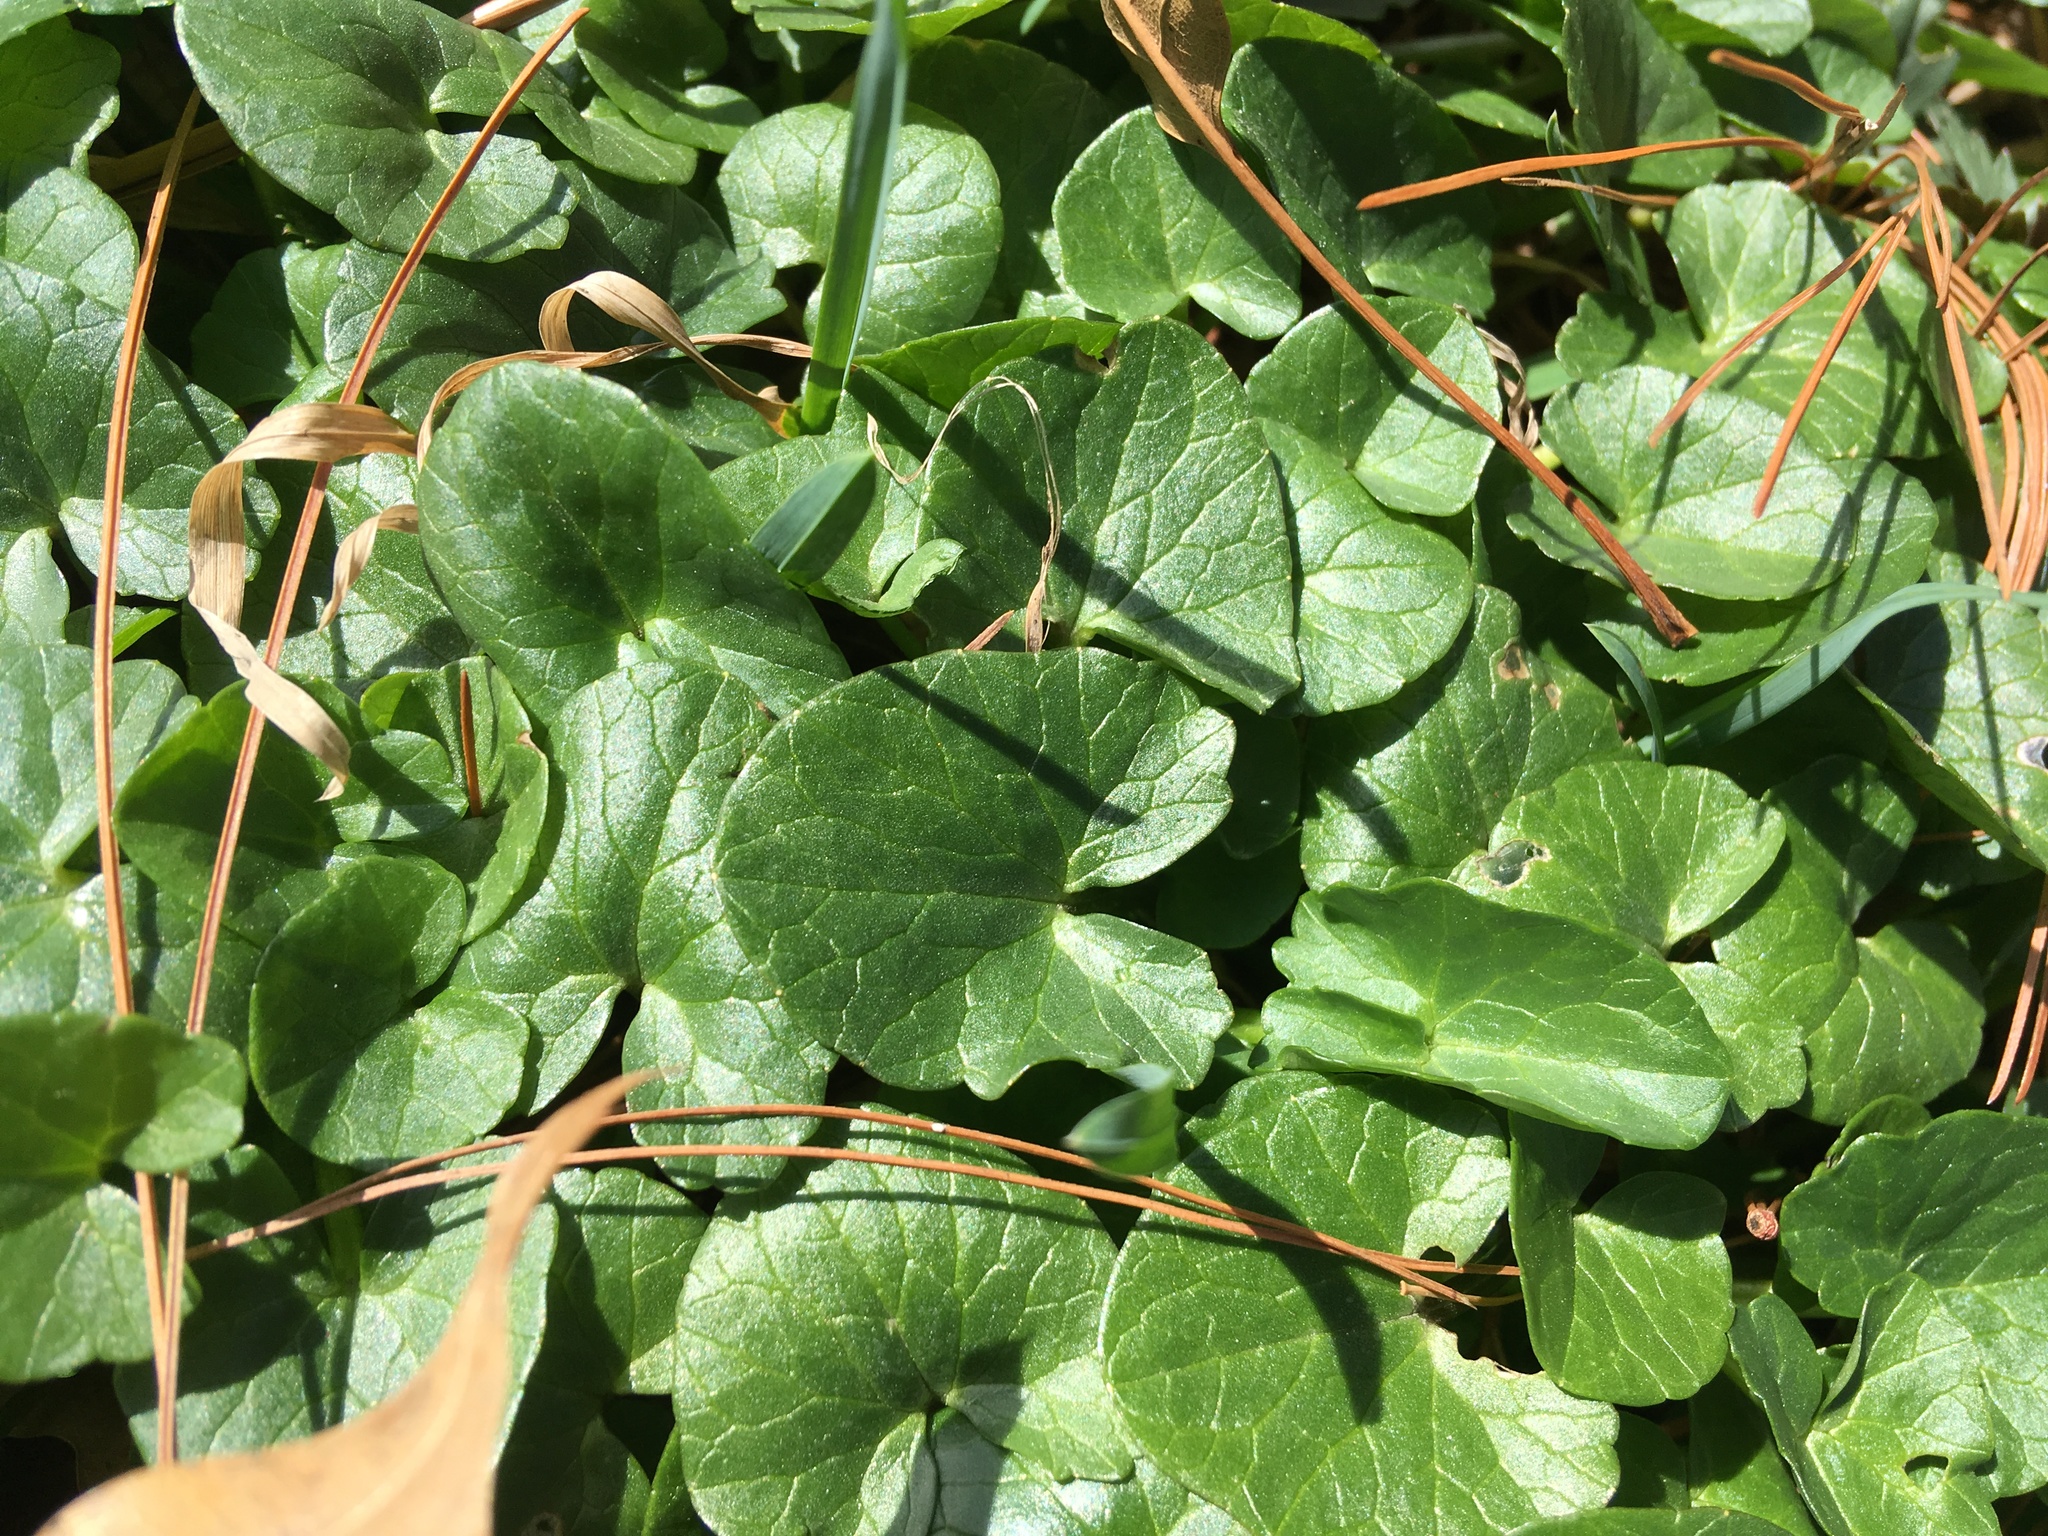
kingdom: Plantae
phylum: Tracheophyta
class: Magnoliopsida
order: Ranunculales
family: Ranunculaceae
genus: Ficaria
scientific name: Ficaria verna
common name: Lesser celandine
